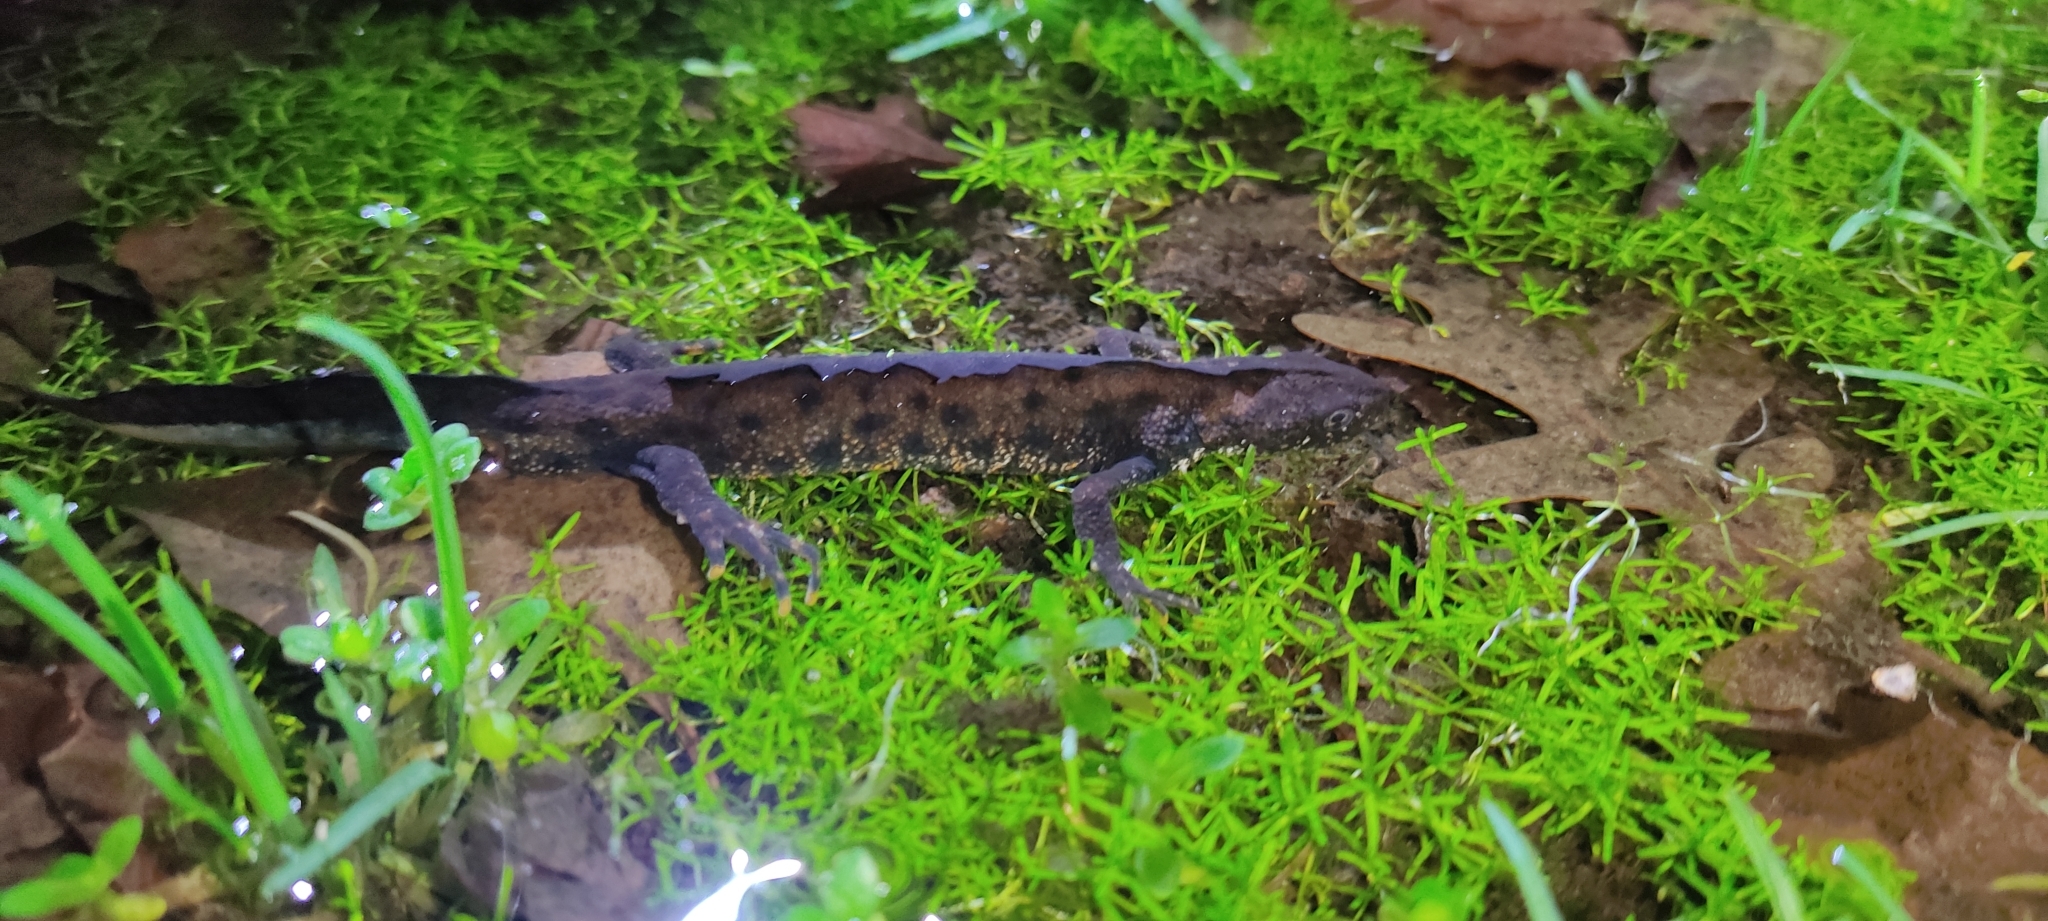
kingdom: Animalia
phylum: Chordata
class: Amphibia
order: Caudata
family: Salamandridae
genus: Triturus
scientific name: Triturus cristatus
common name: Crested newt
